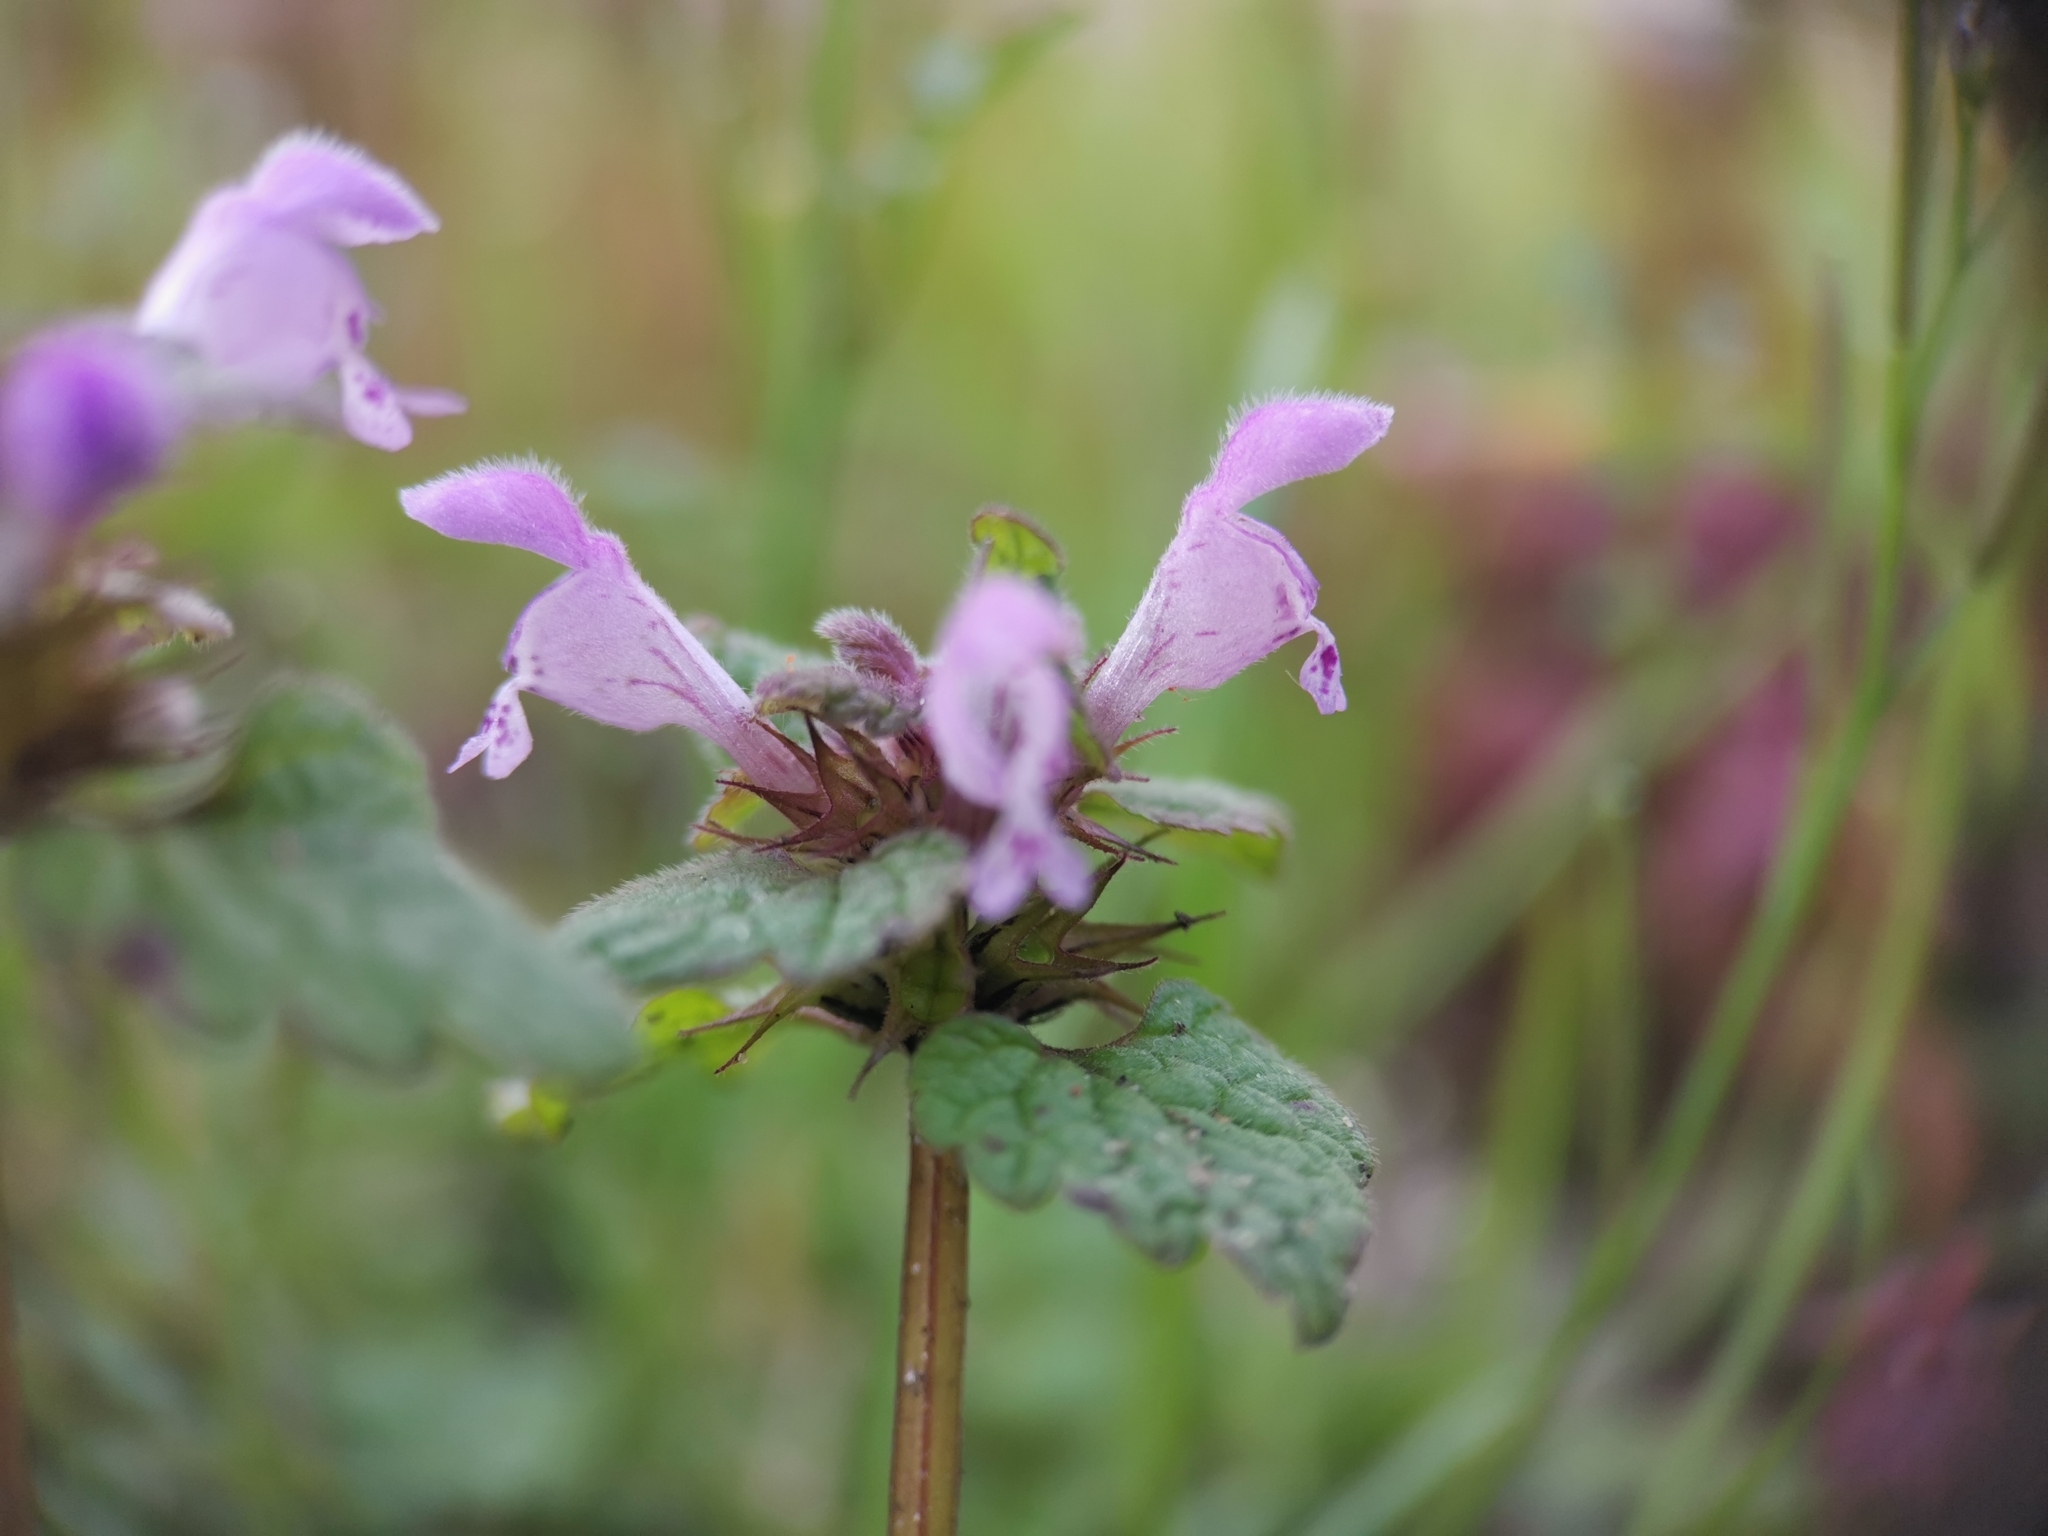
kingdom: Plantae
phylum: Tracheophyta
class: Magnoliopsida
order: Lamiales
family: Lamiaceae
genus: Lamium
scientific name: Lamium purpureum
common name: Red dead-nettle
